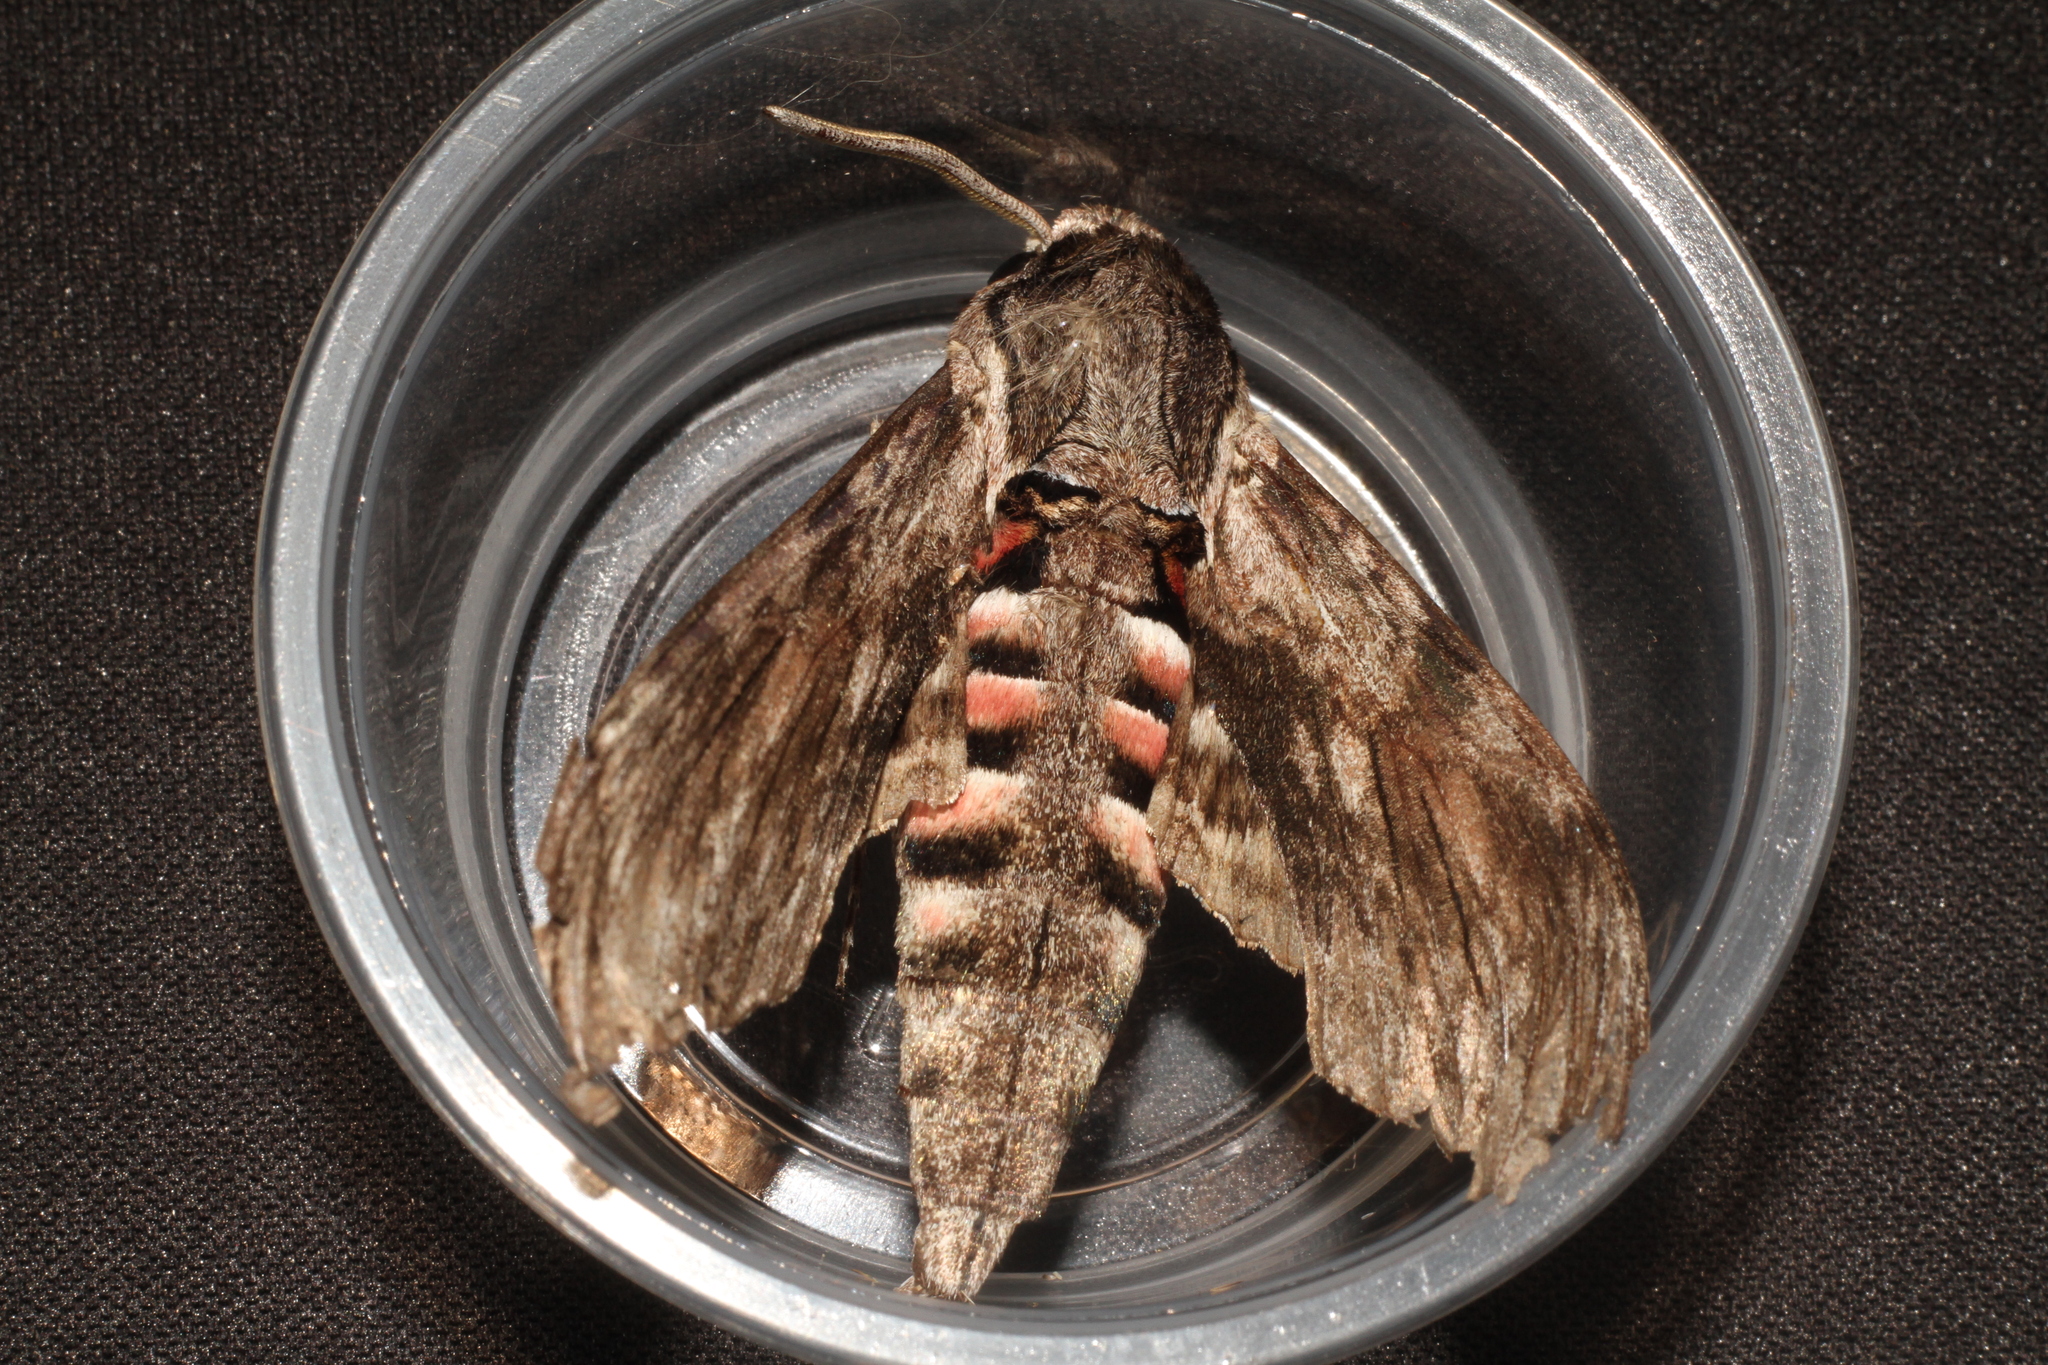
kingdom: Animalia
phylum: Arthropoda
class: Insecta
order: Lepidoptera
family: Sphingidae
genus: Agrius
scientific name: Agrius convolvuli
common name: Convolvulus hawkmoth
